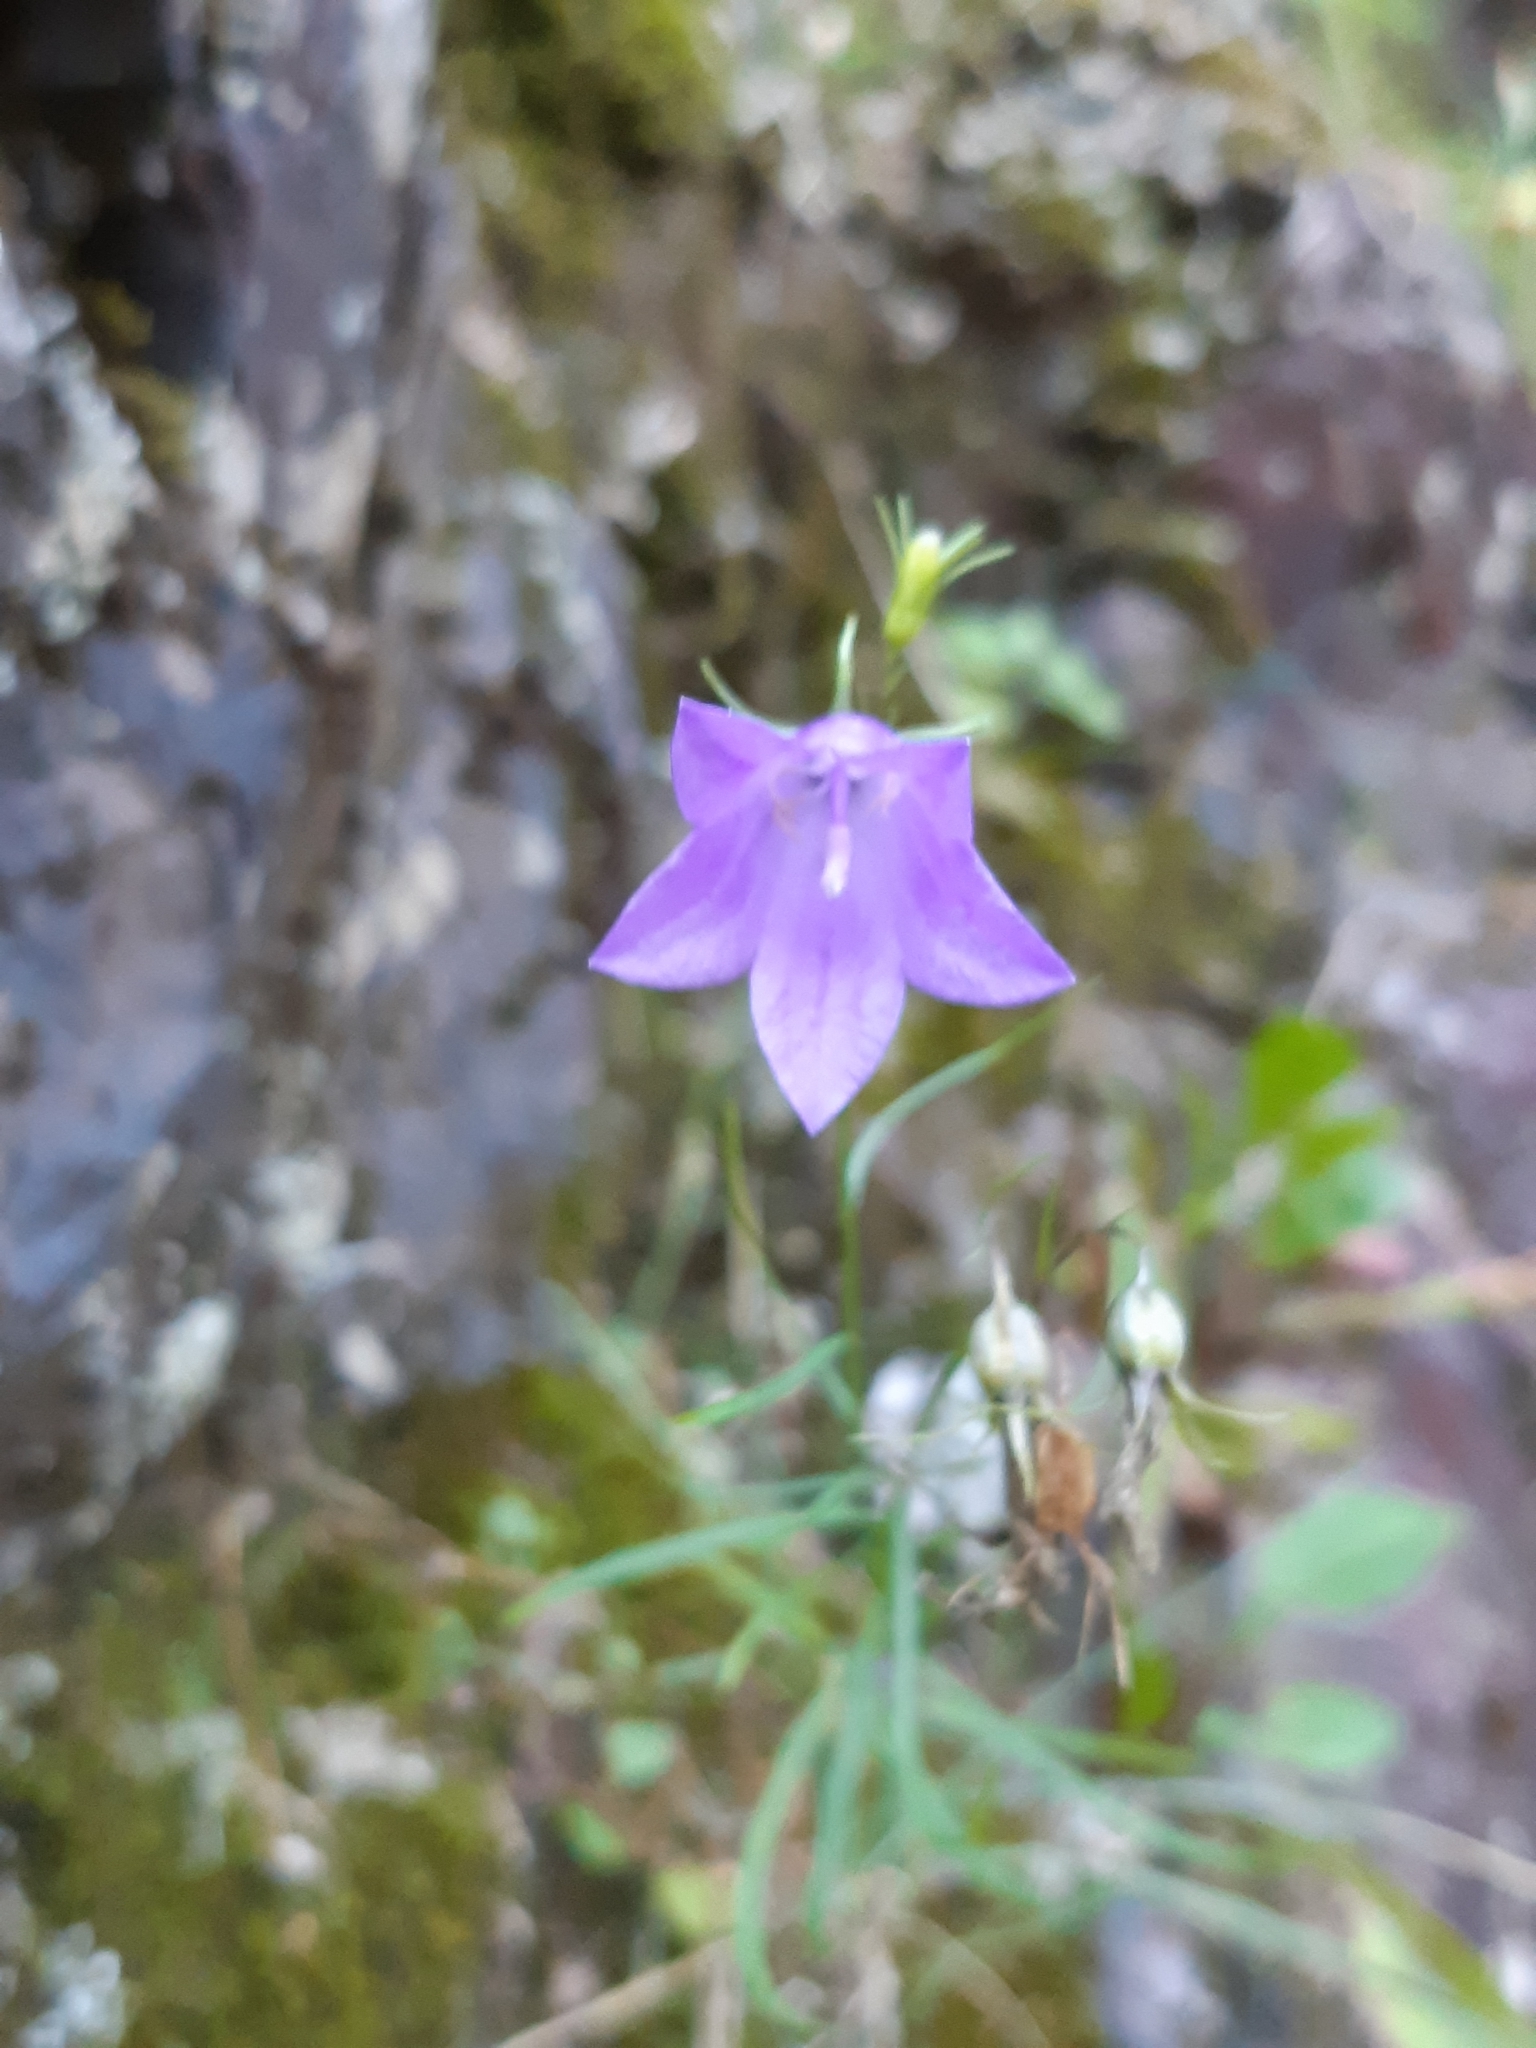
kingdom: Plantae
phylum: Tracheophyta
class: Magnoliopsida
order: Asterales
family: Campanulaceae
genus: Campanula
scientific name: Campanula intercedens
